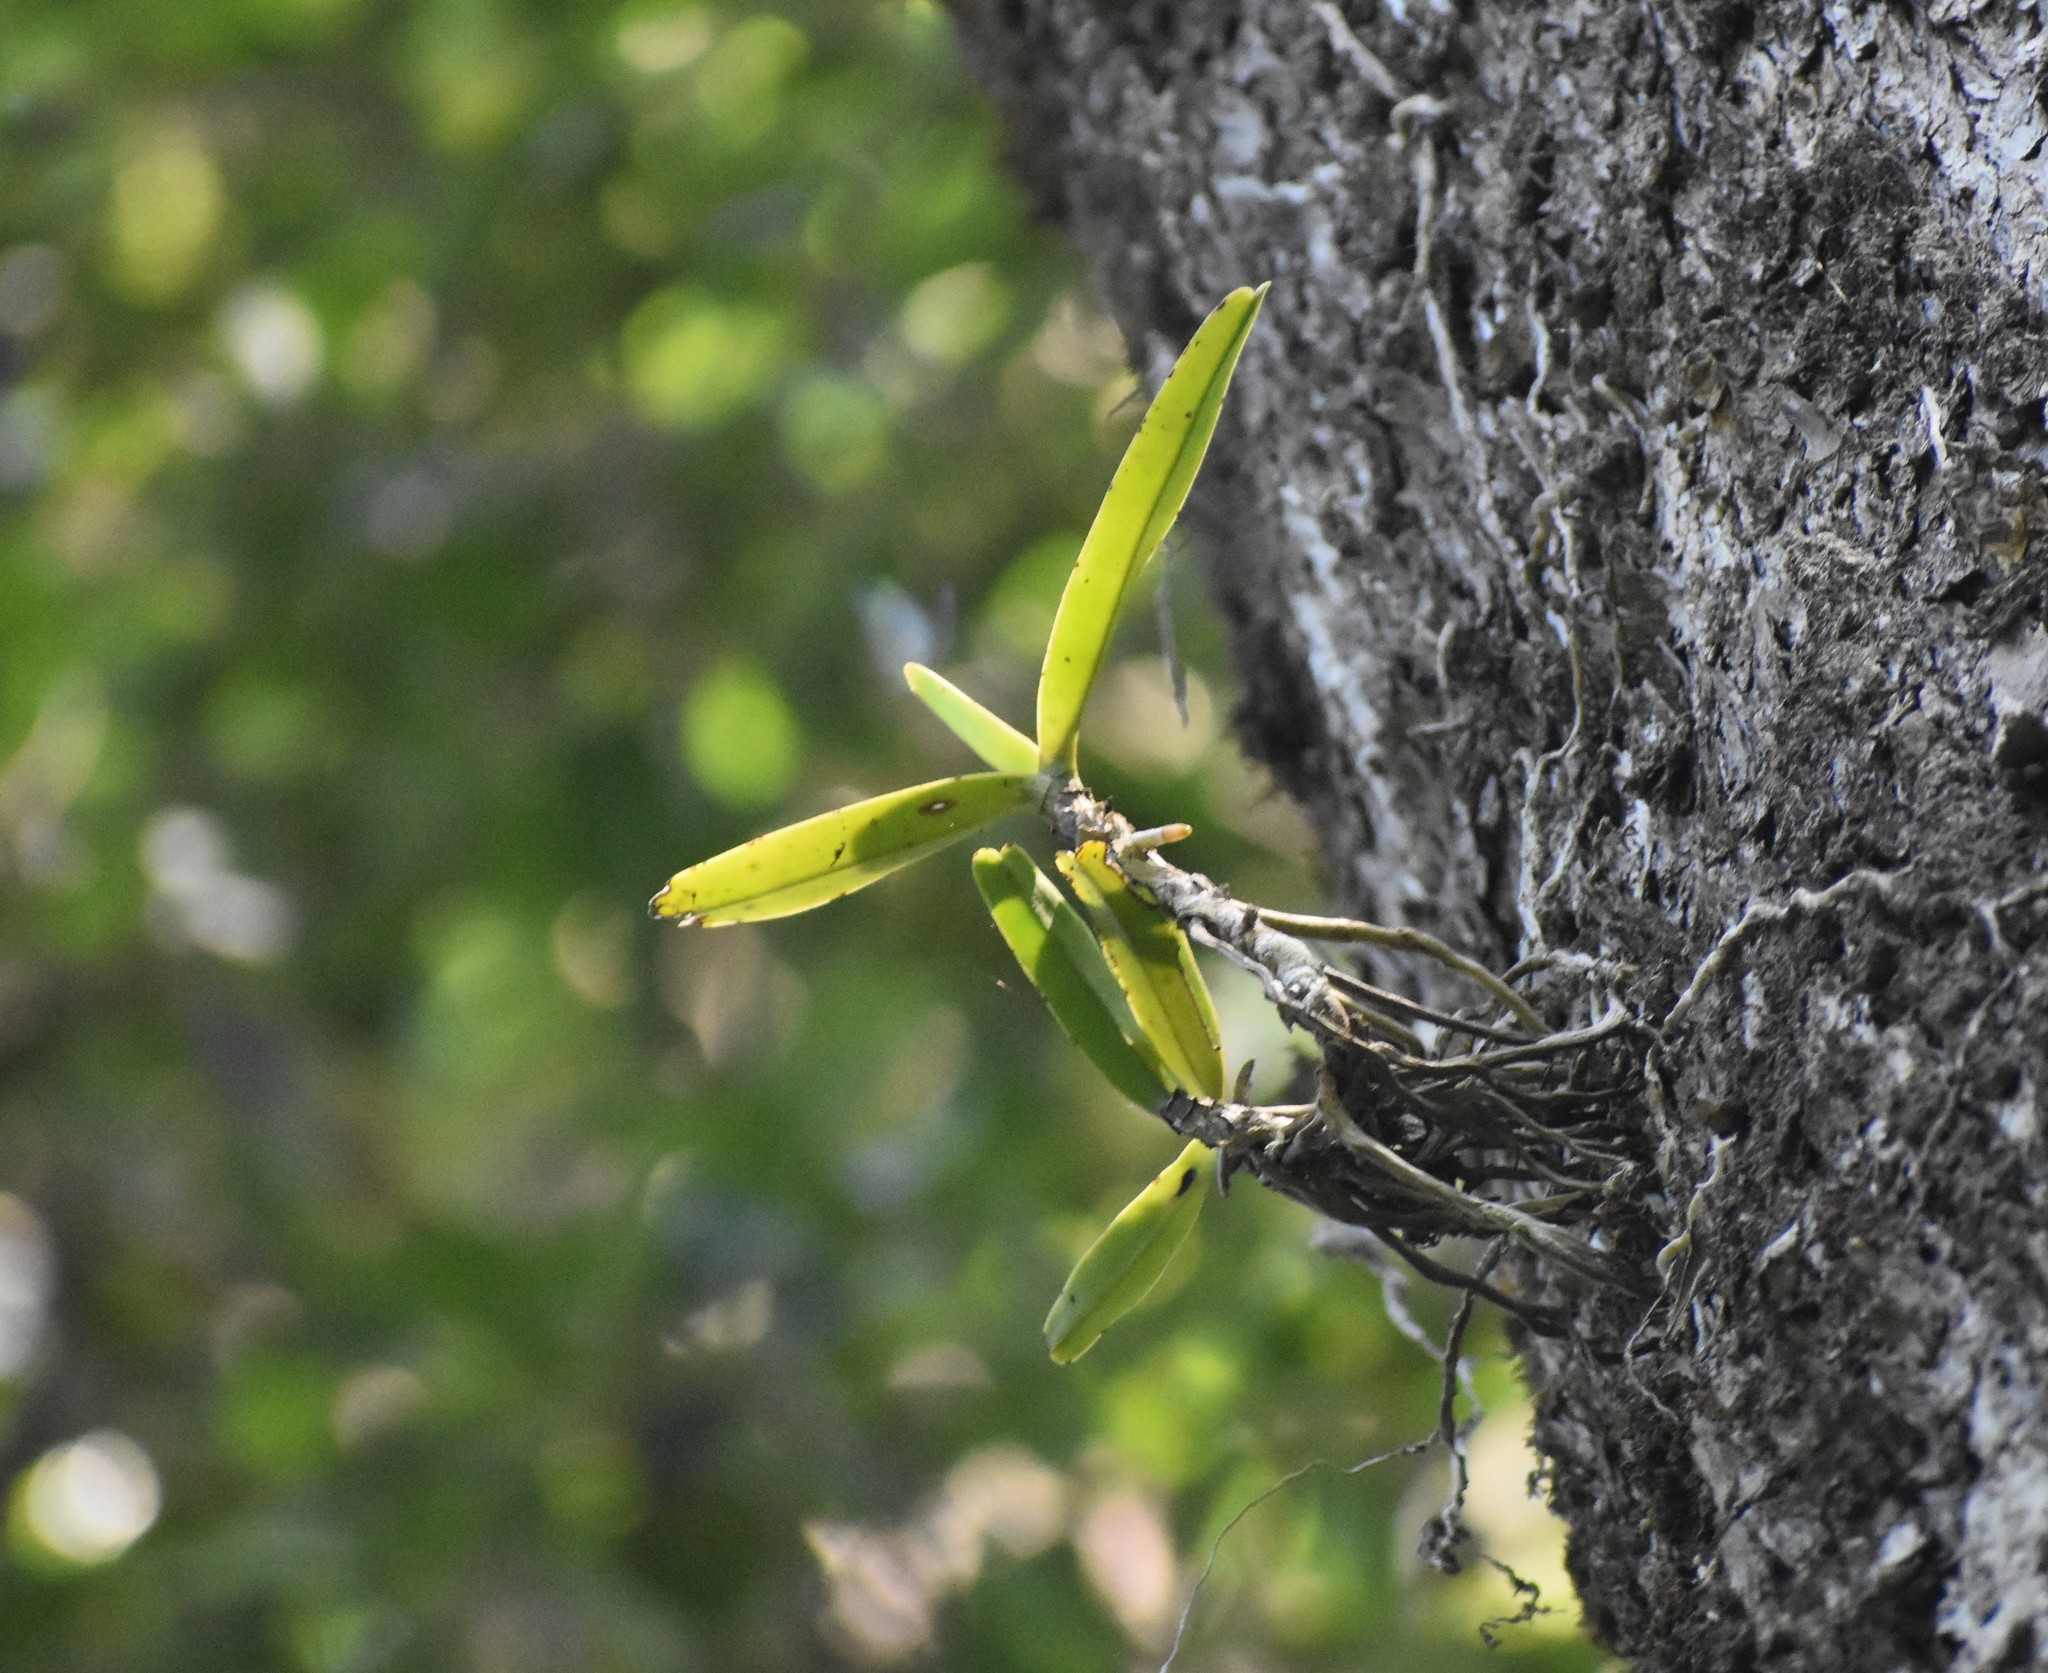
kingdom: Plantae
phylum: Tracheophyta
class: Liliopsida
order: Asparagales
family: Orchidaceae
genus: Cyrtorchis
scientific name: Cyrtorchis arcuata
